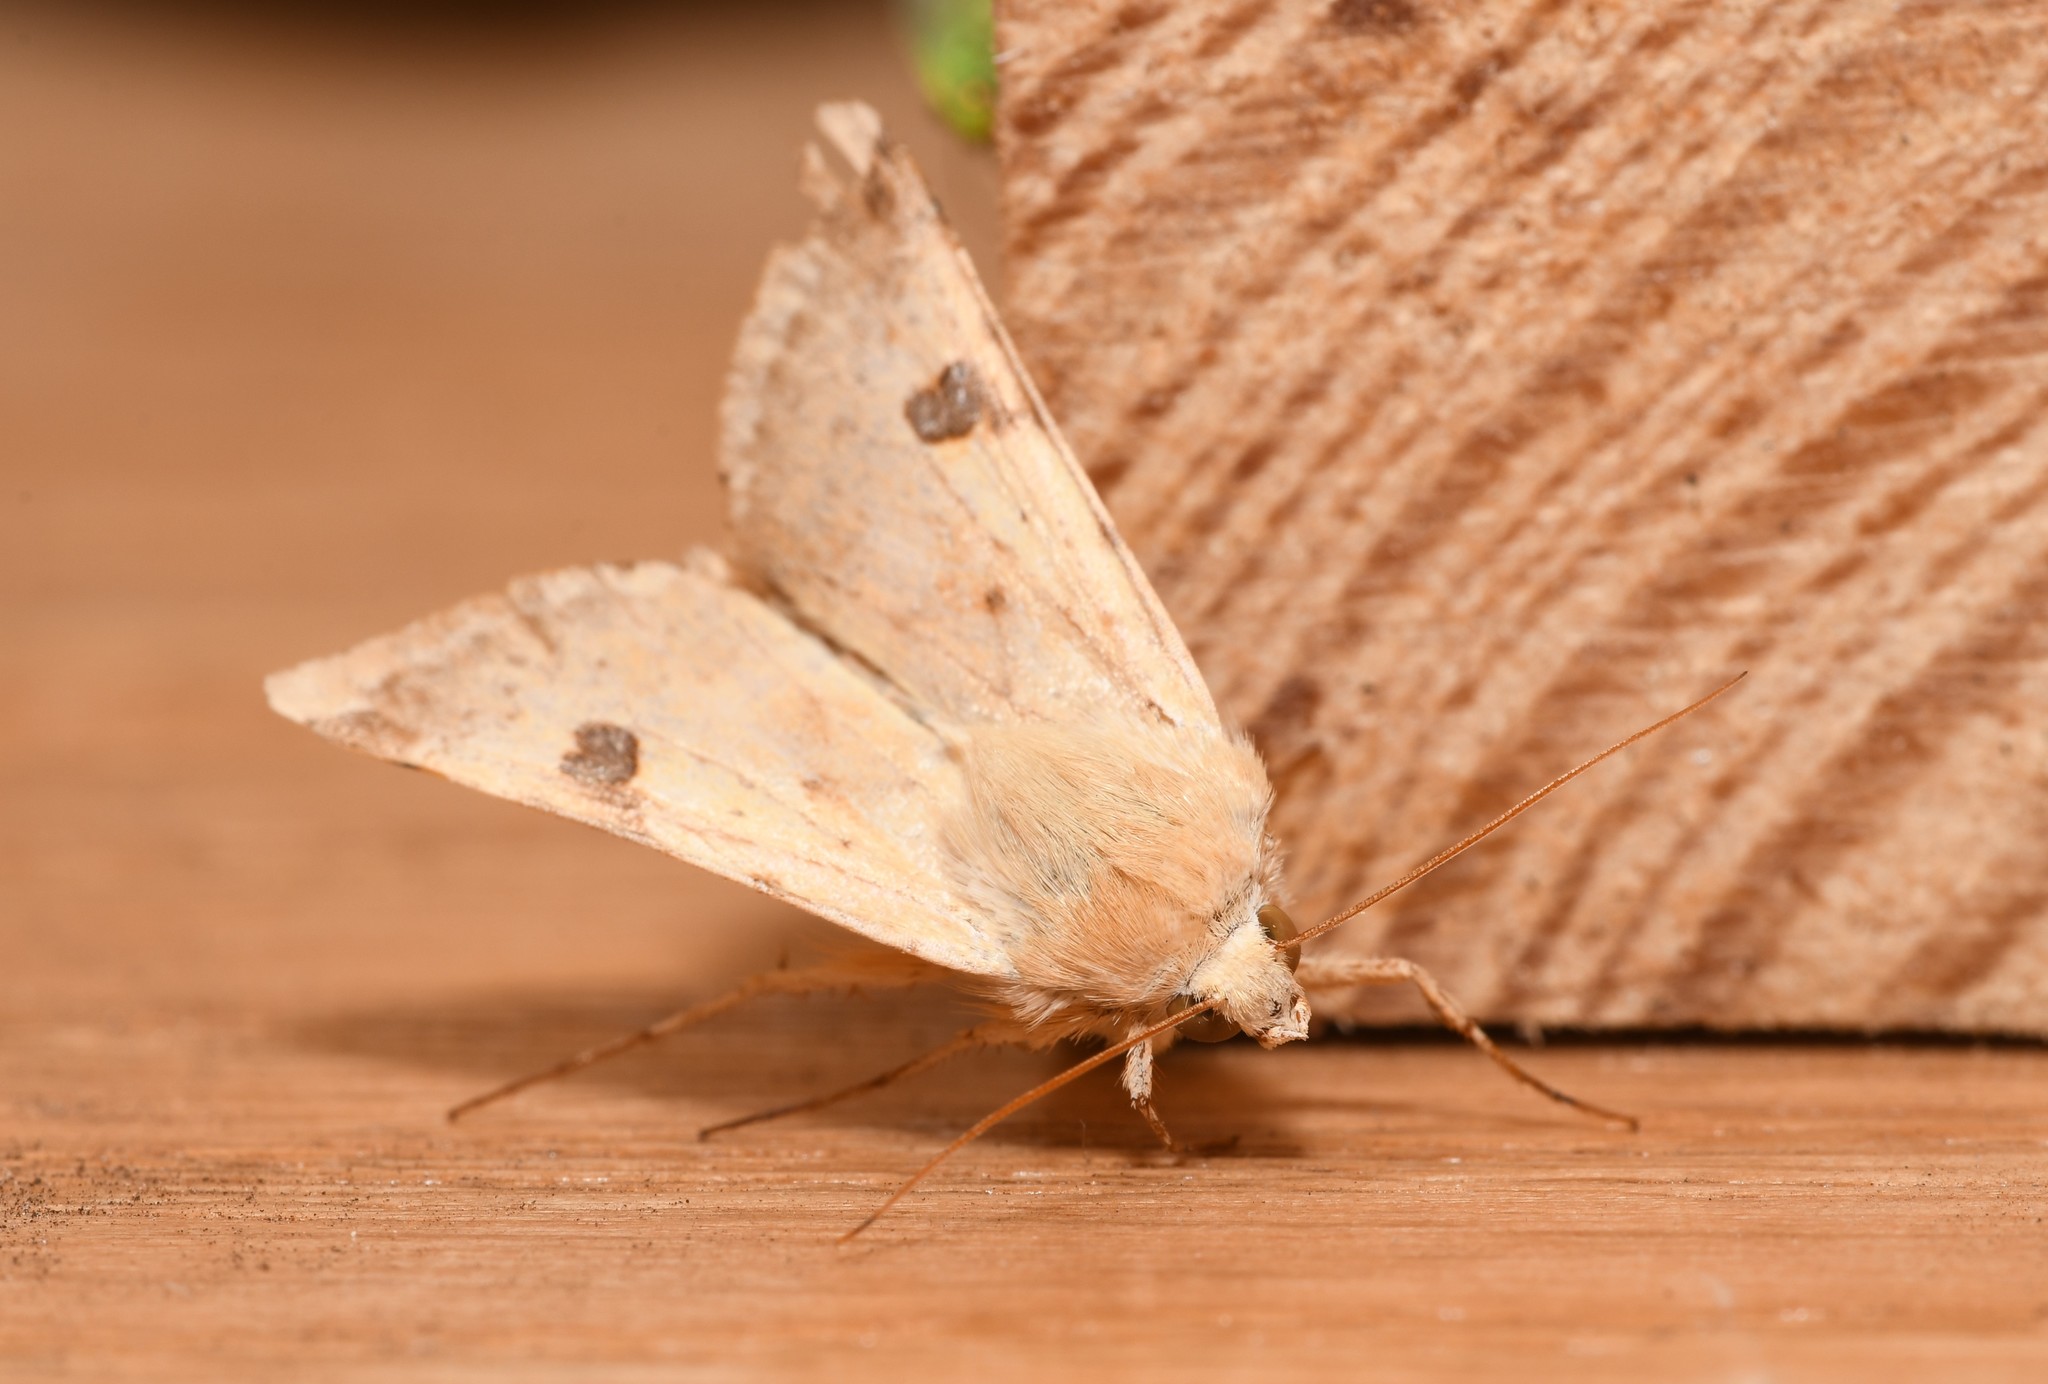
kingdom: Animalia
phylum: Arthropoda
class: Insecta
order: Lepidoptera
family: Noctuidae
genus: Heliothis
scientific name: Heliothis peltigera
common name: Bordered straw
